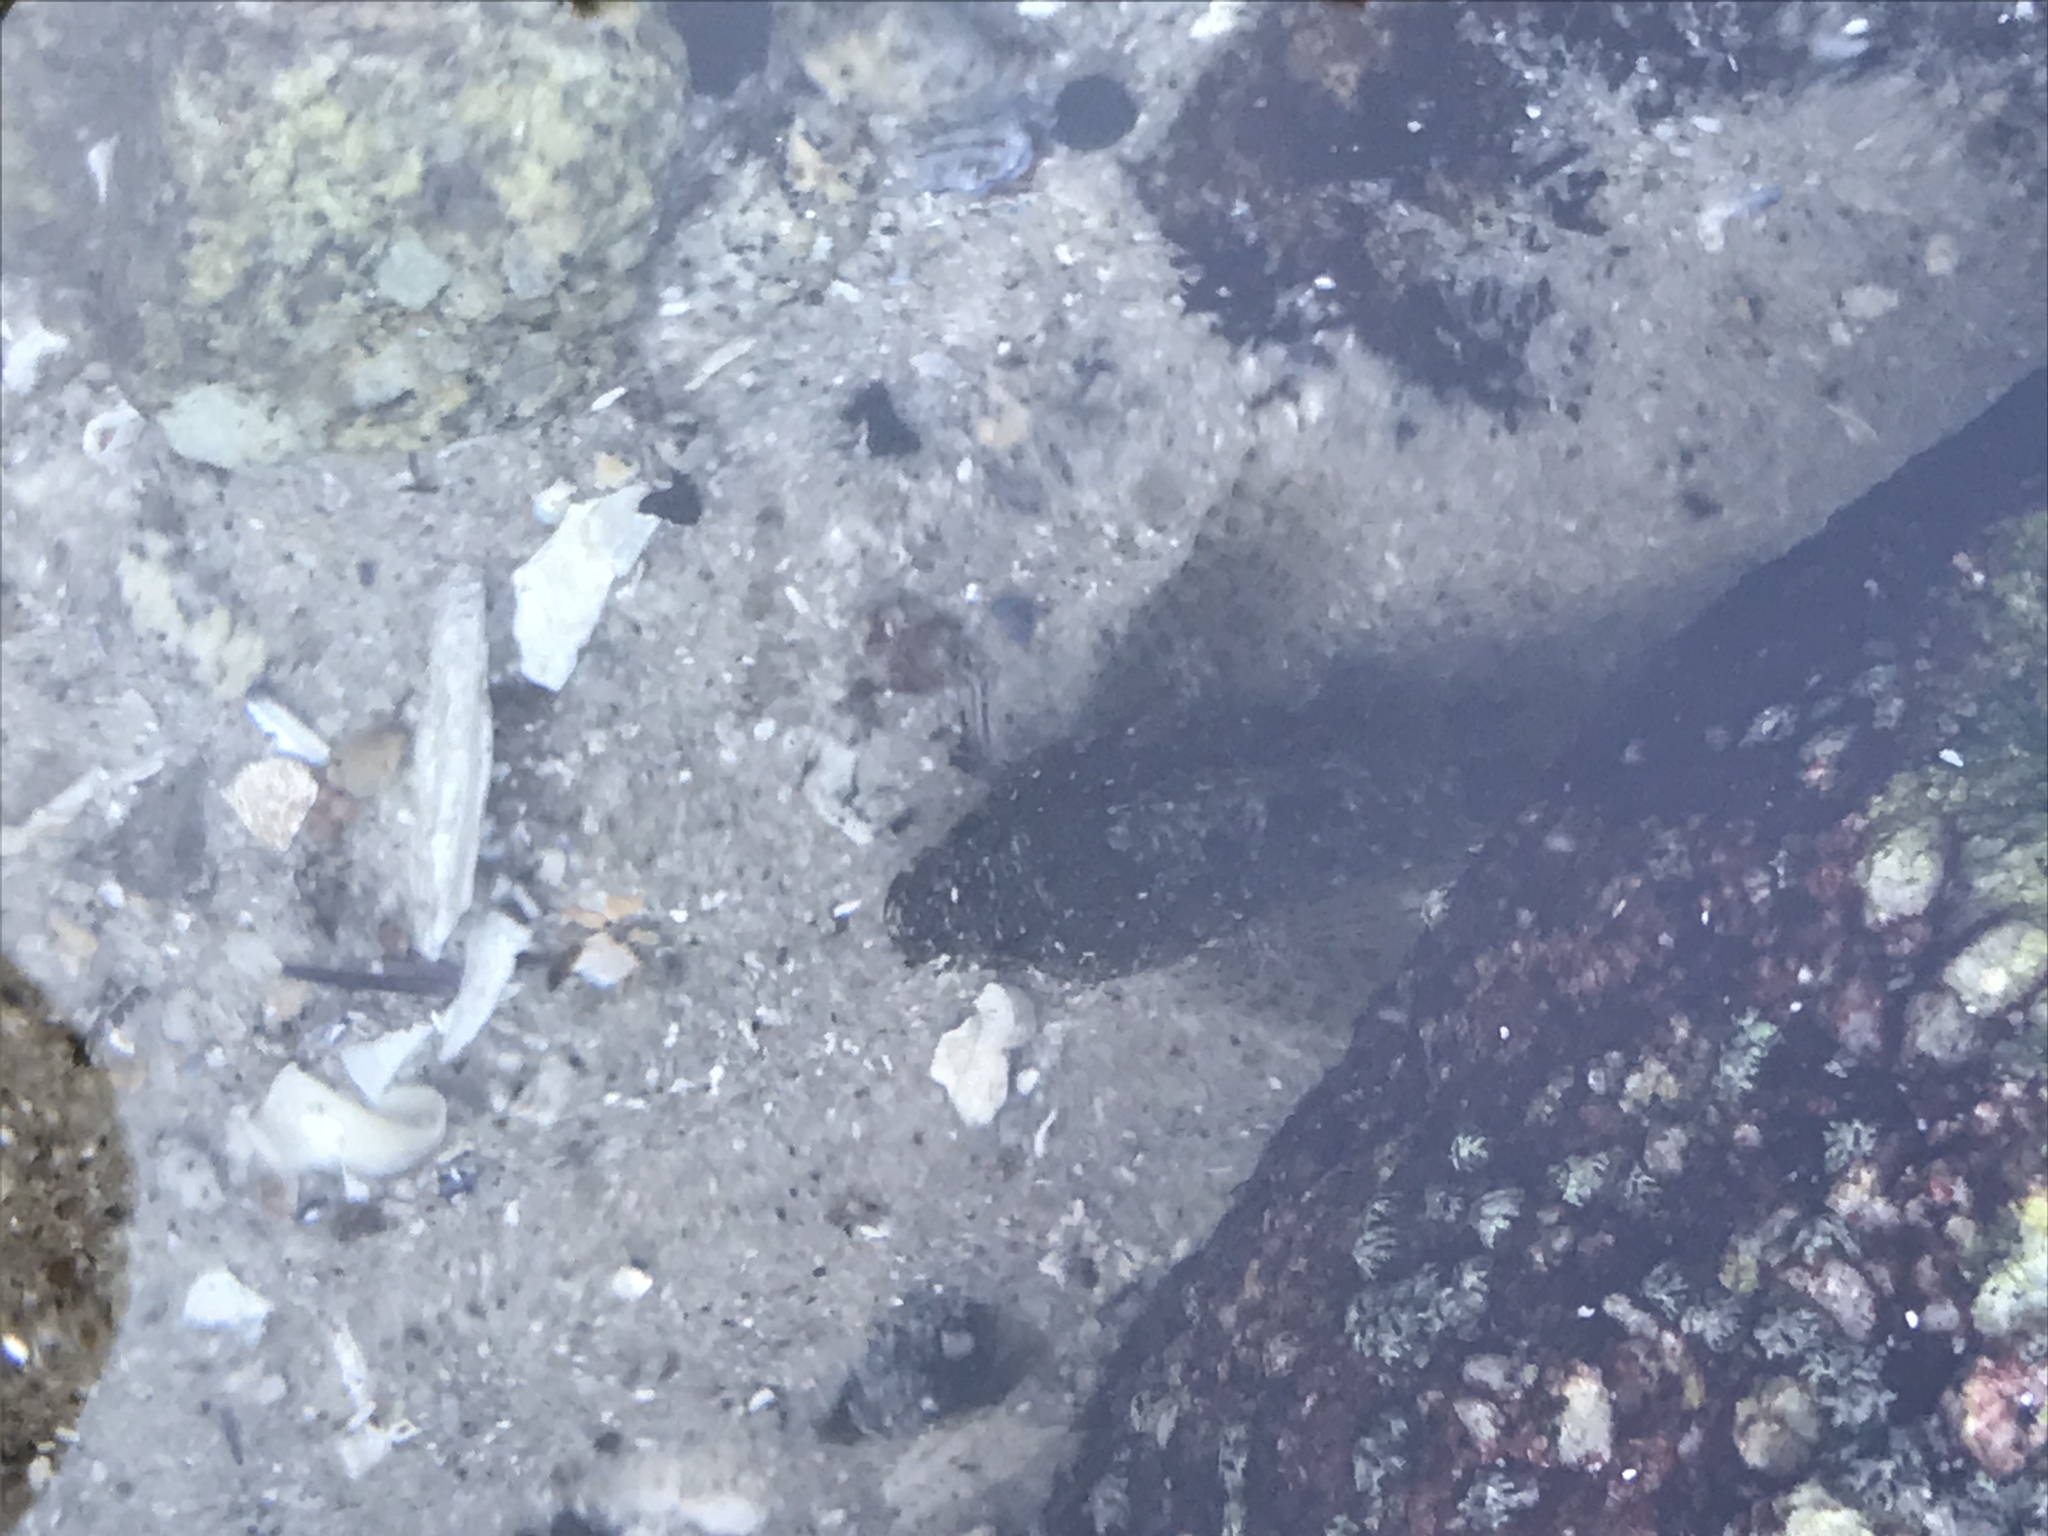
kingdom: Animalia
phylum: Chordata
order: Scorpaeniformes
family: Cottidae
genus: Clinocottus
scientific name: Clinocottus analis
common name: Woolly sculpin
